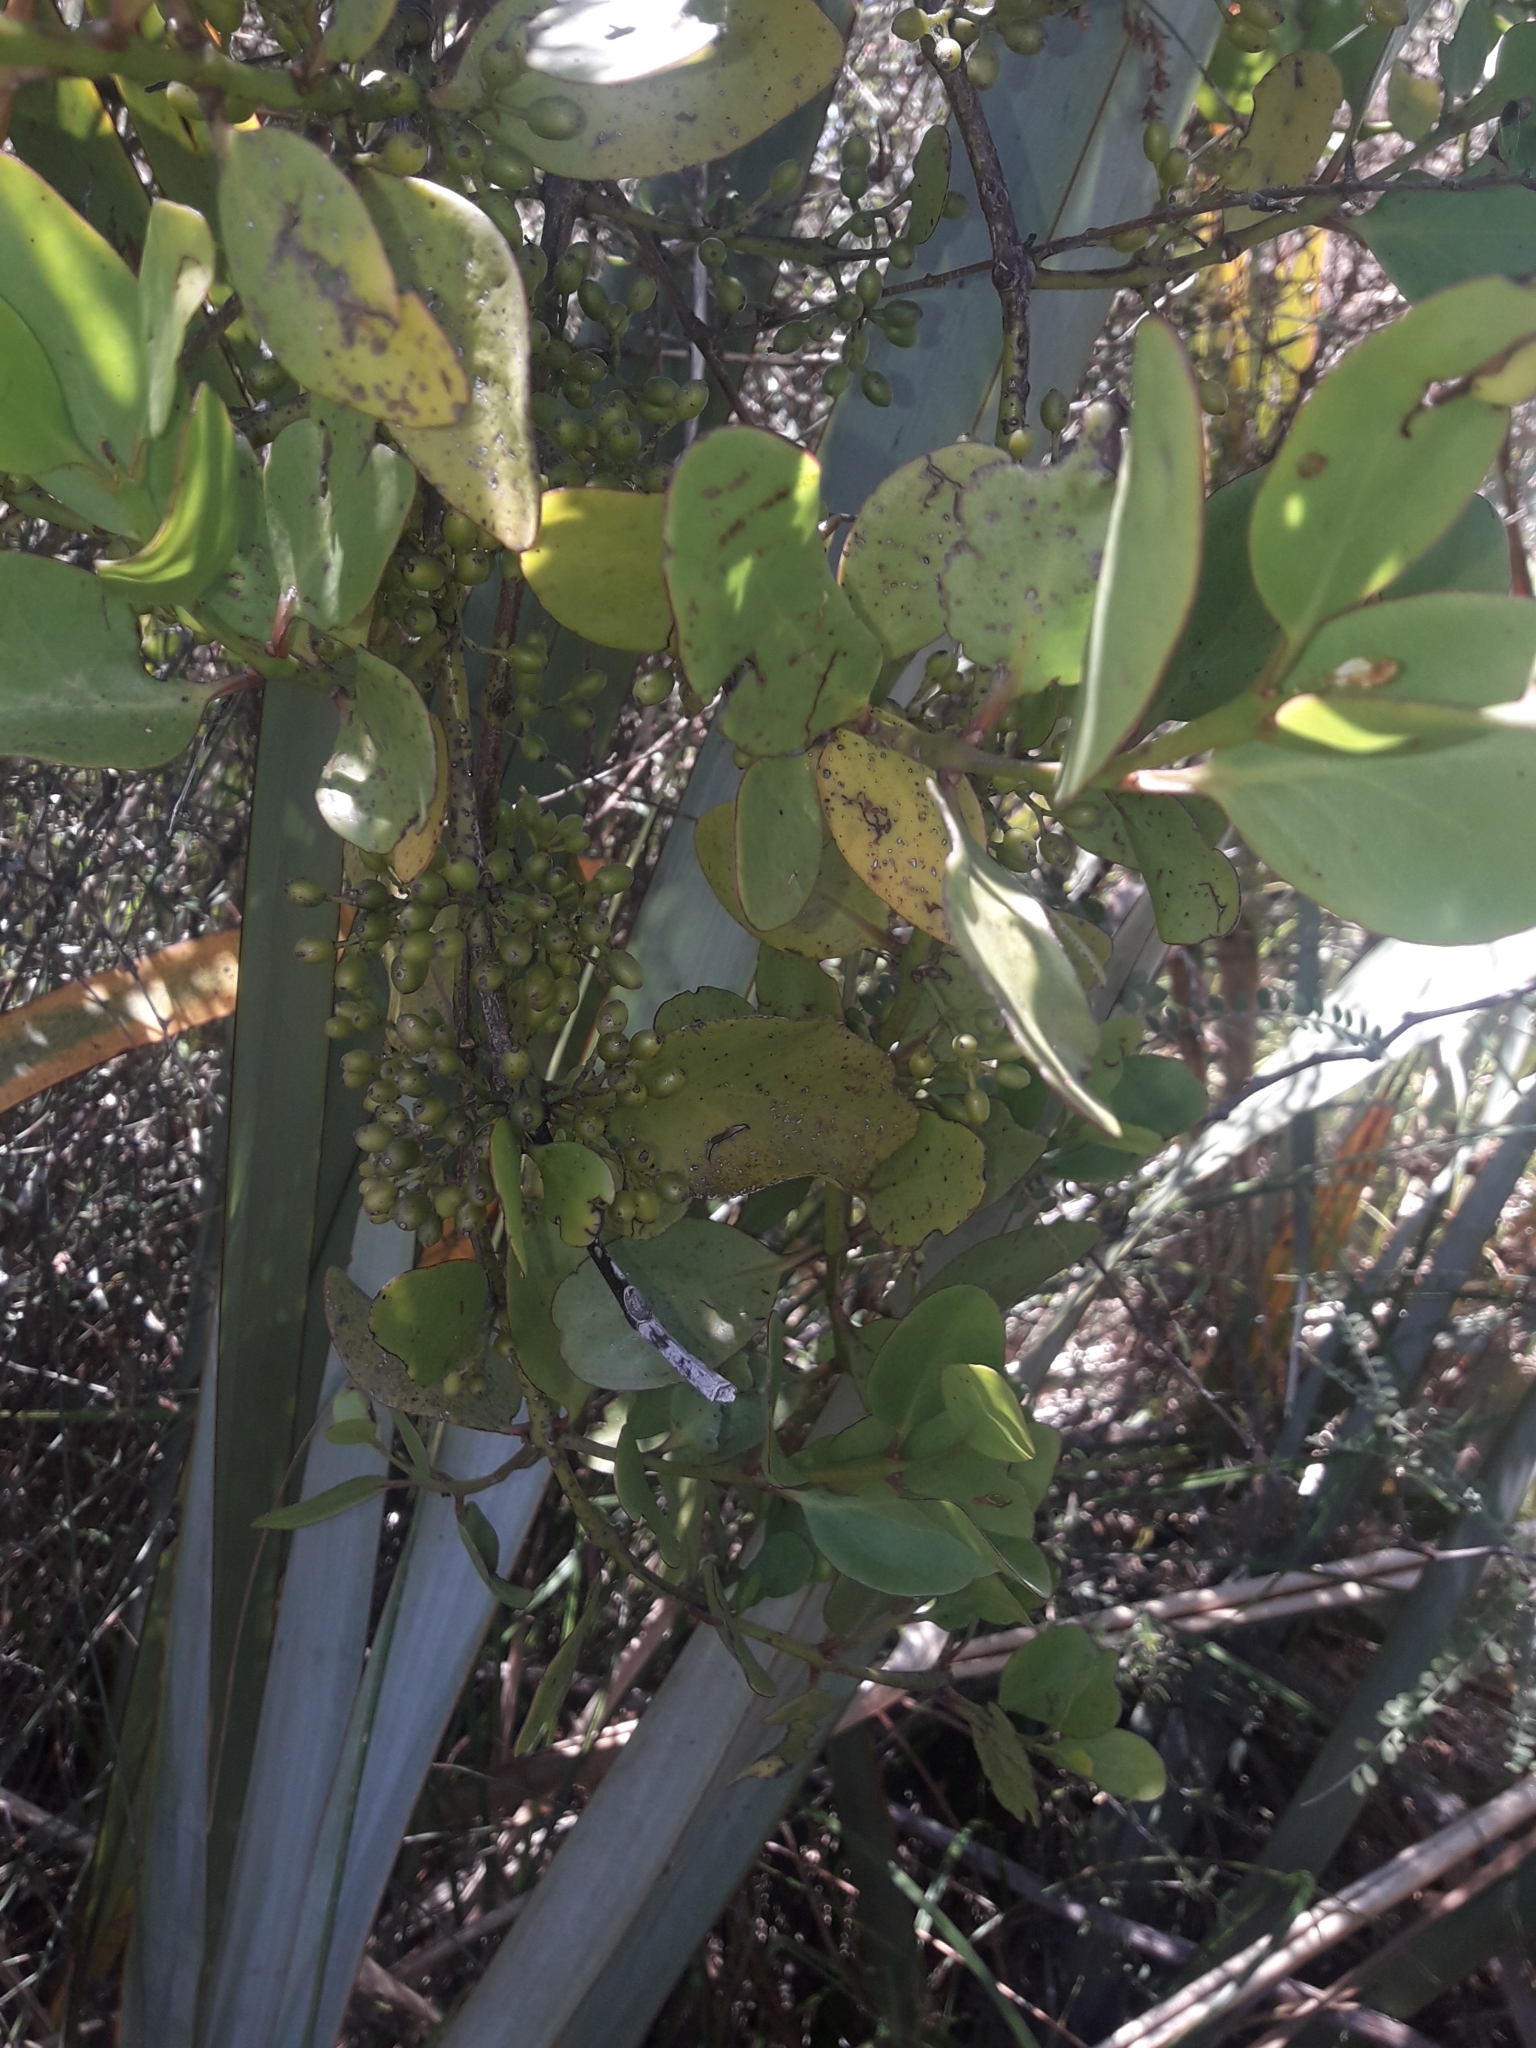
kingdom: Plantae
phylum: Tracheophyta
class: Magnoliopsida
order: Santalales
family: Loranthaceae
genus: Ileostylus
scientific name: Ileostylus micranthus
